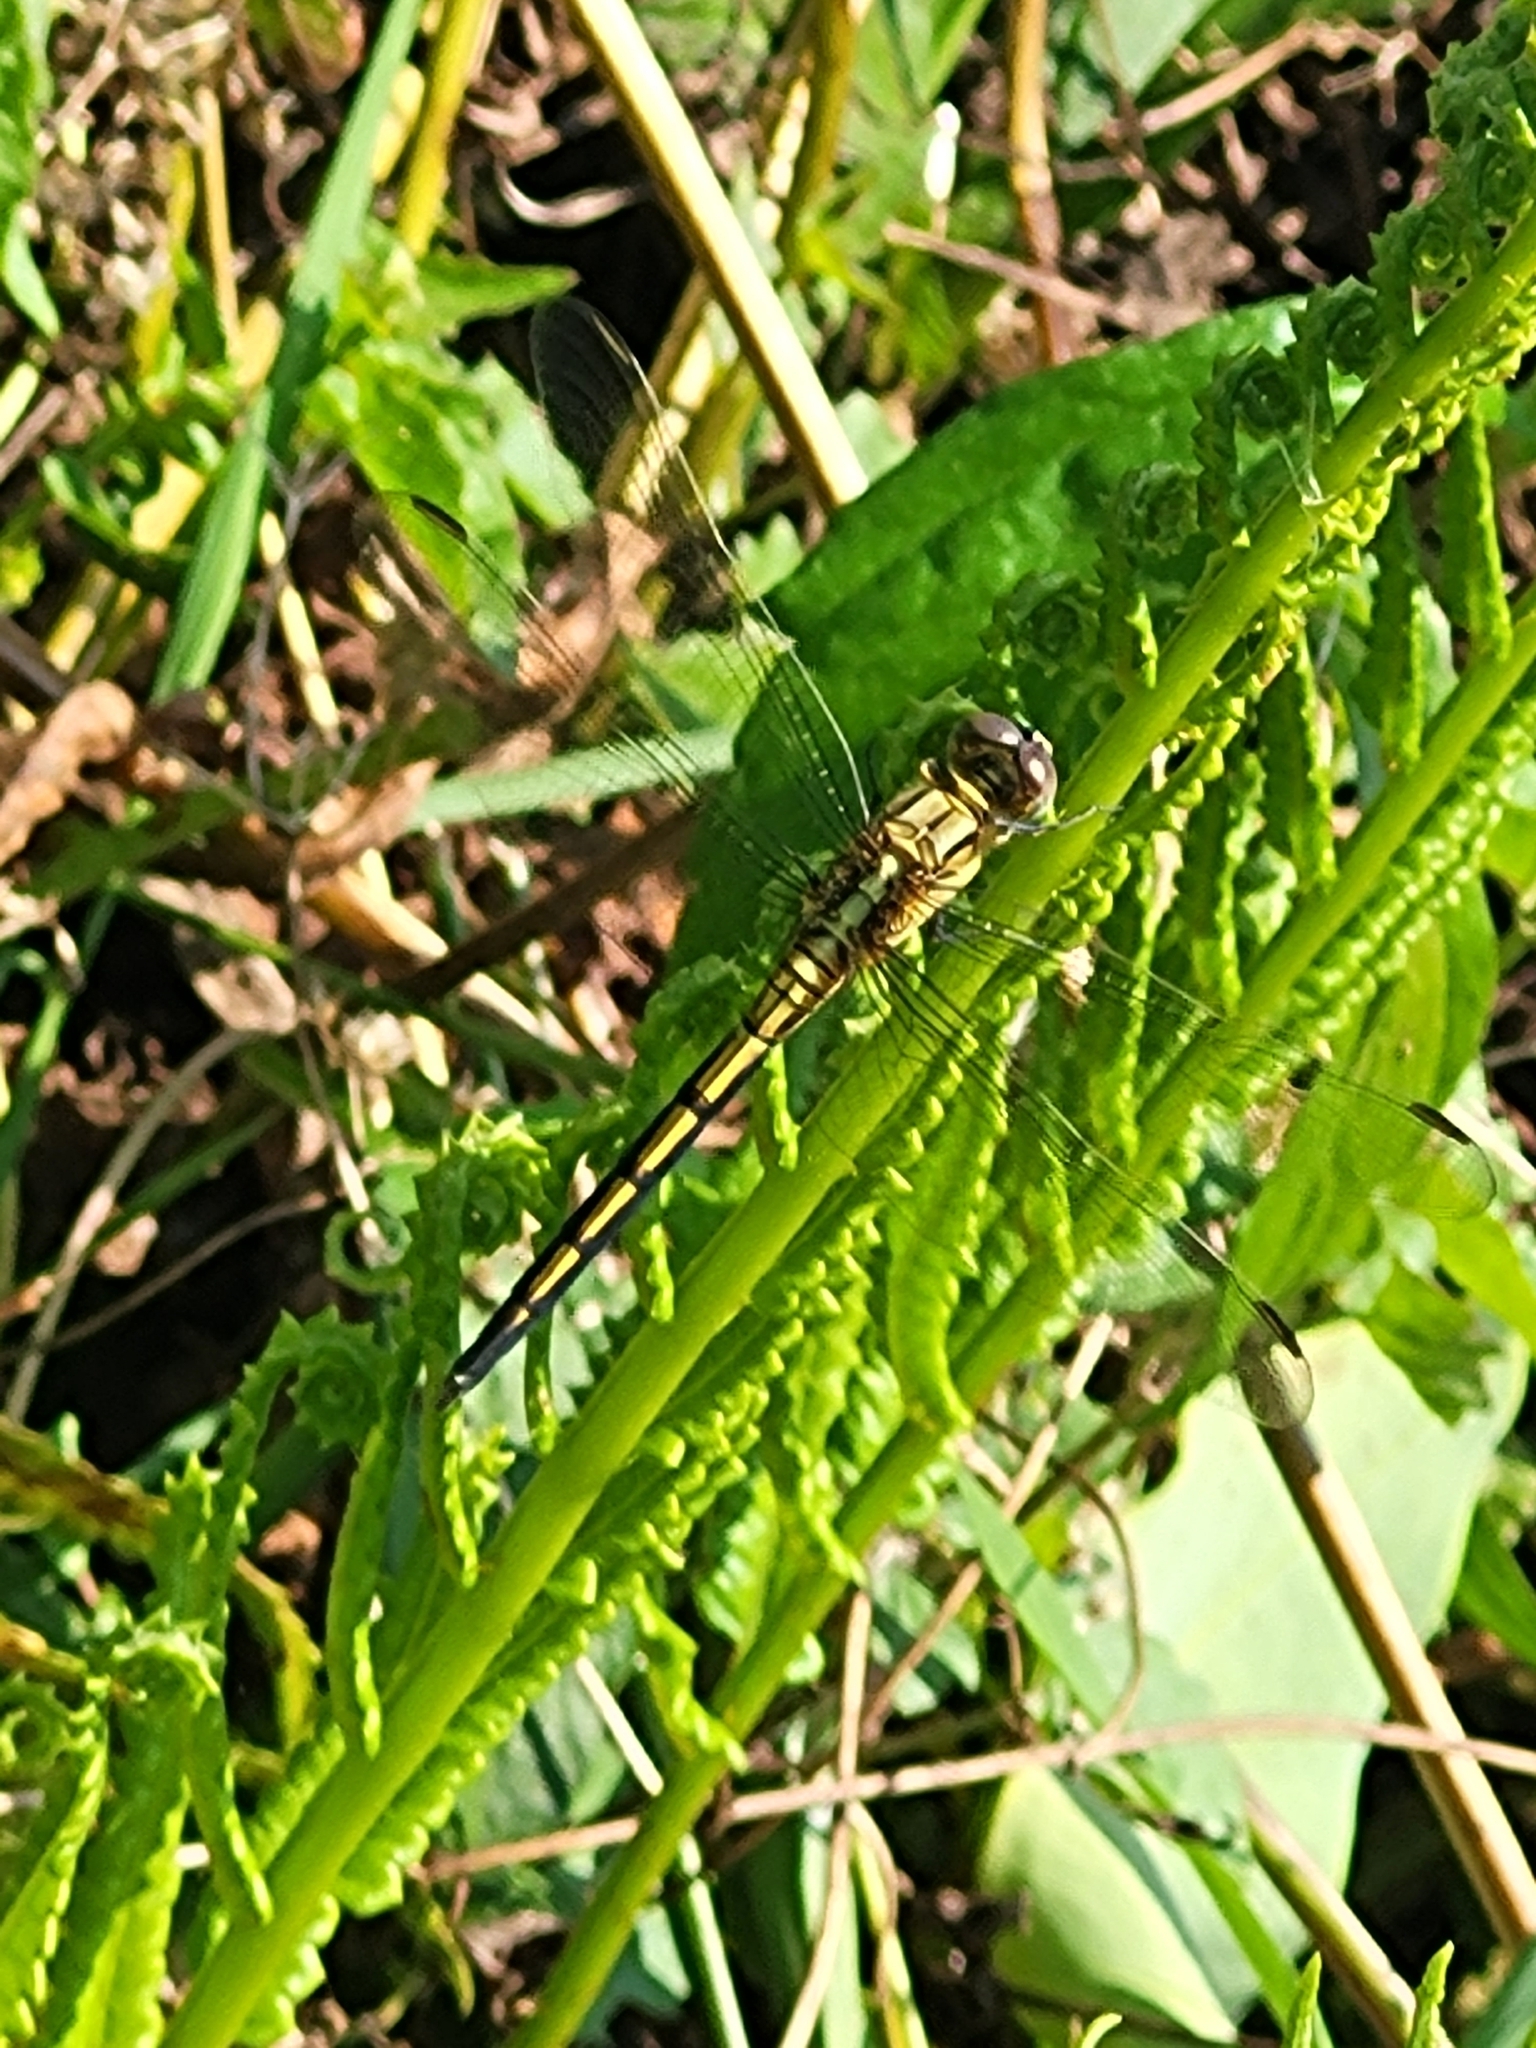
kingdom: Animalia
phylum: Arthropoda
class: Insecta
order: Odonata
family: Libellulidae
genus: Orthetrum
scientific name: Orthetrum luzonicum
